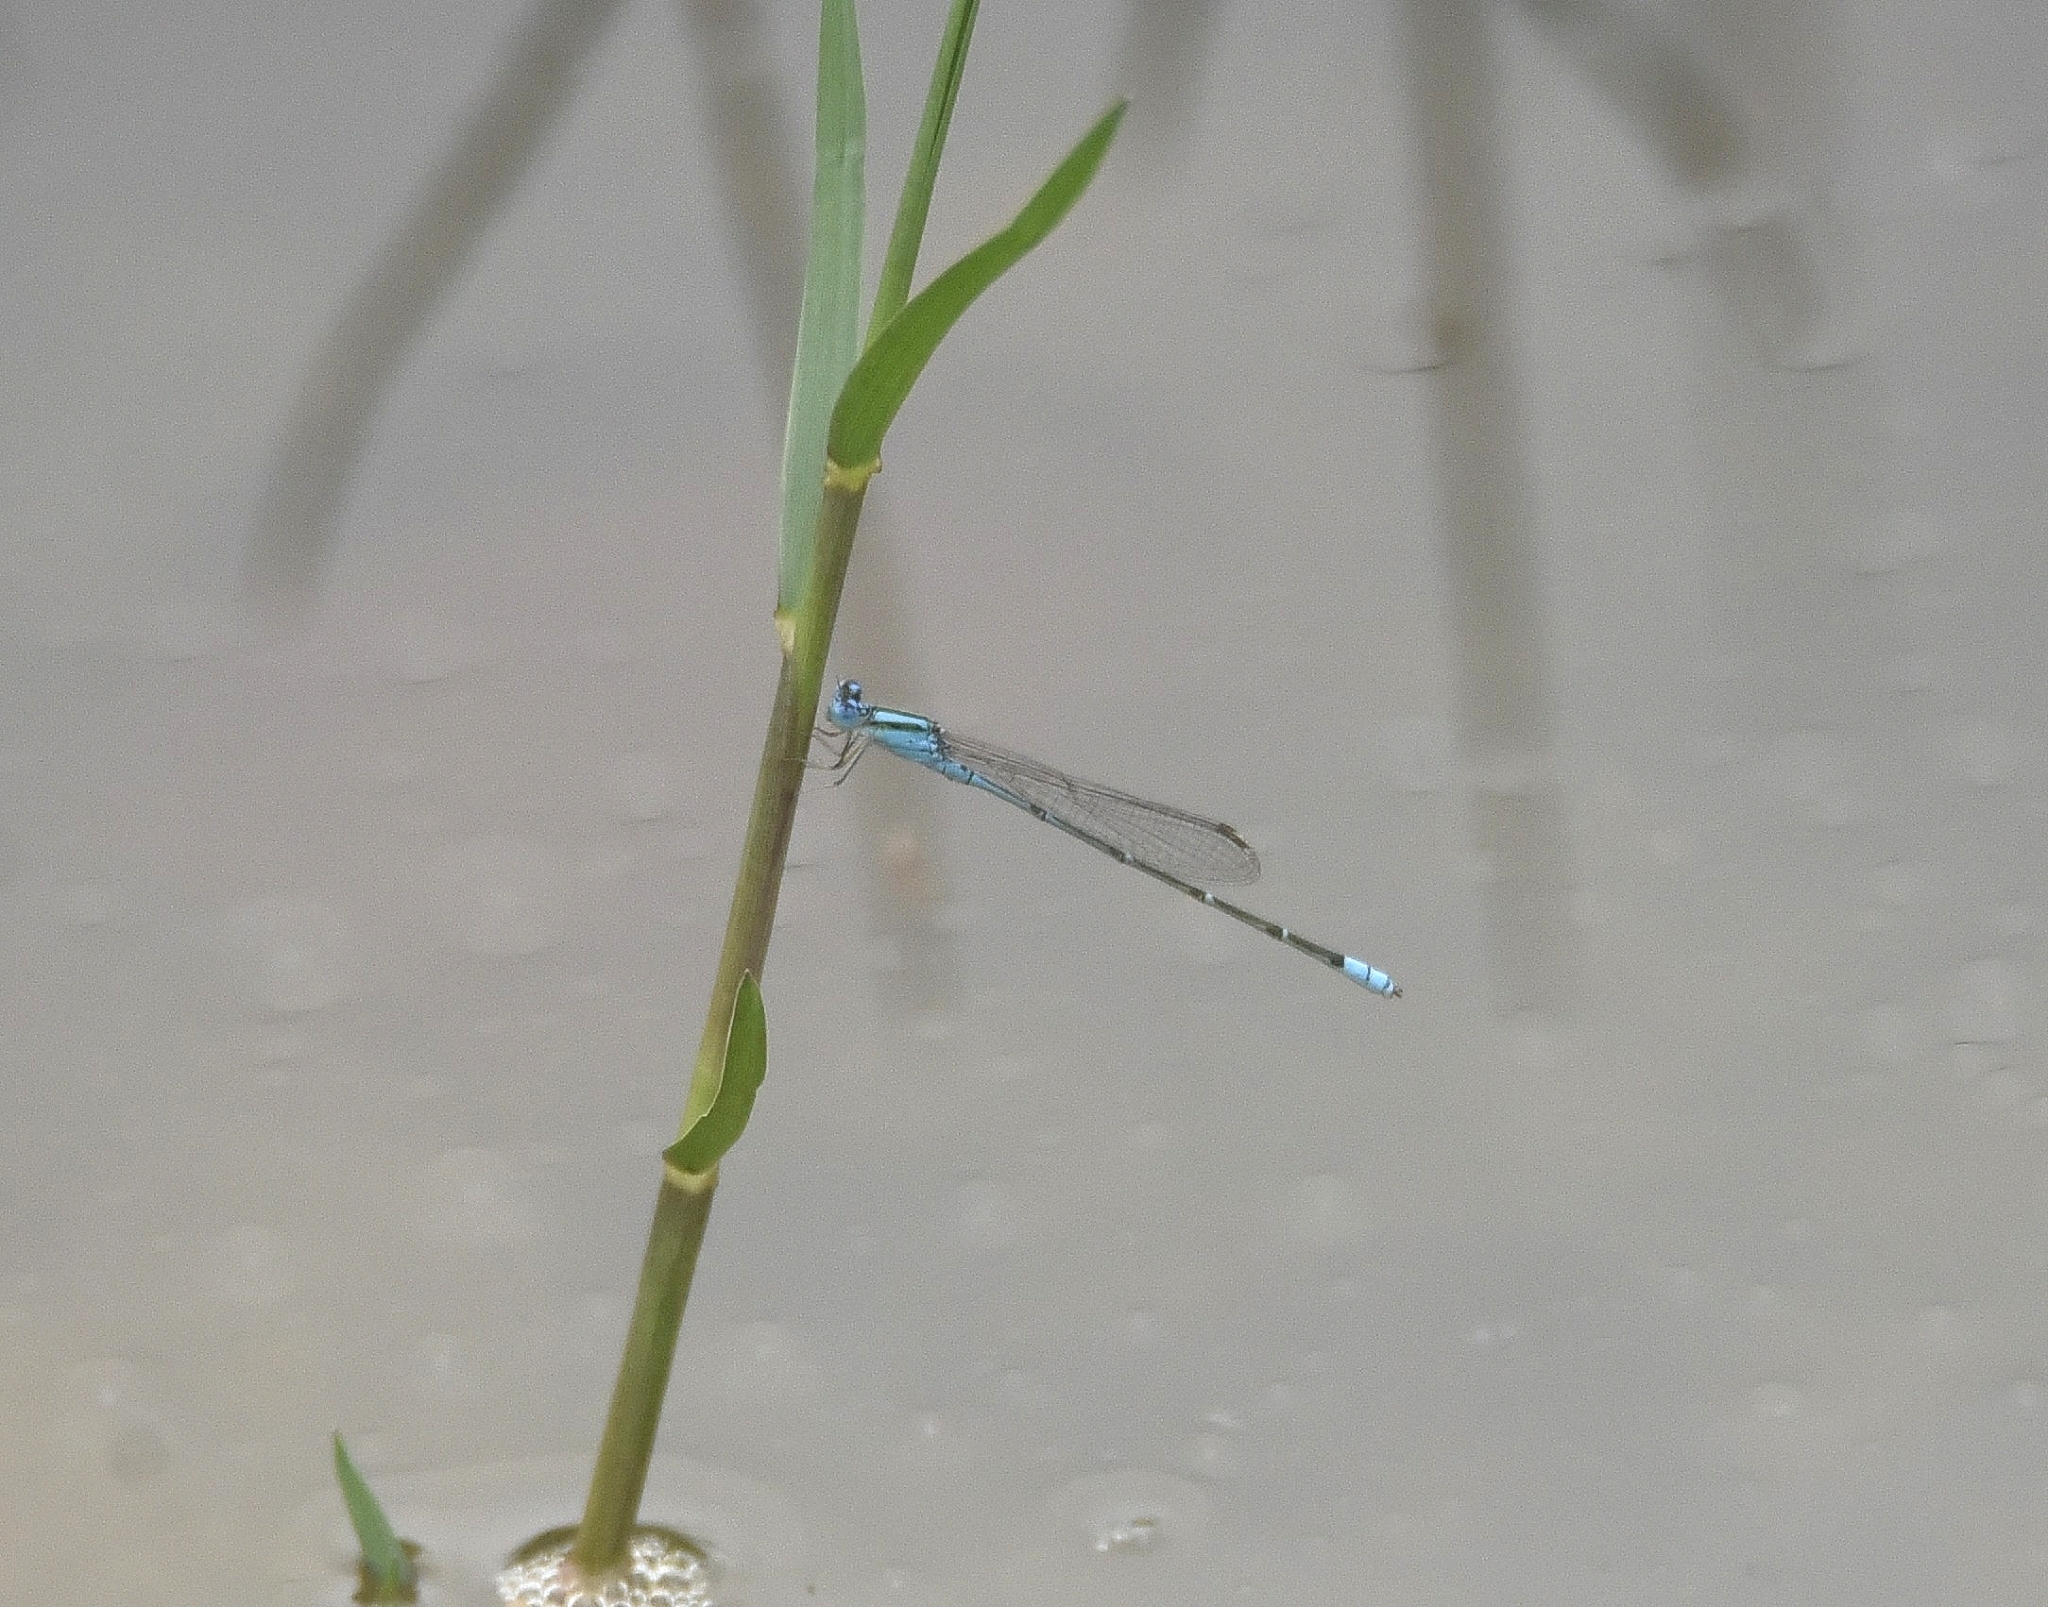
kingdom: Animalia
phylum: Arthropoda
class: Insecta
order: Odonata
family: Coenagrionidae
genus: Pseudagrion
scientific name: Pseudagrion microcephalum
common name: Blue riverdamsel
